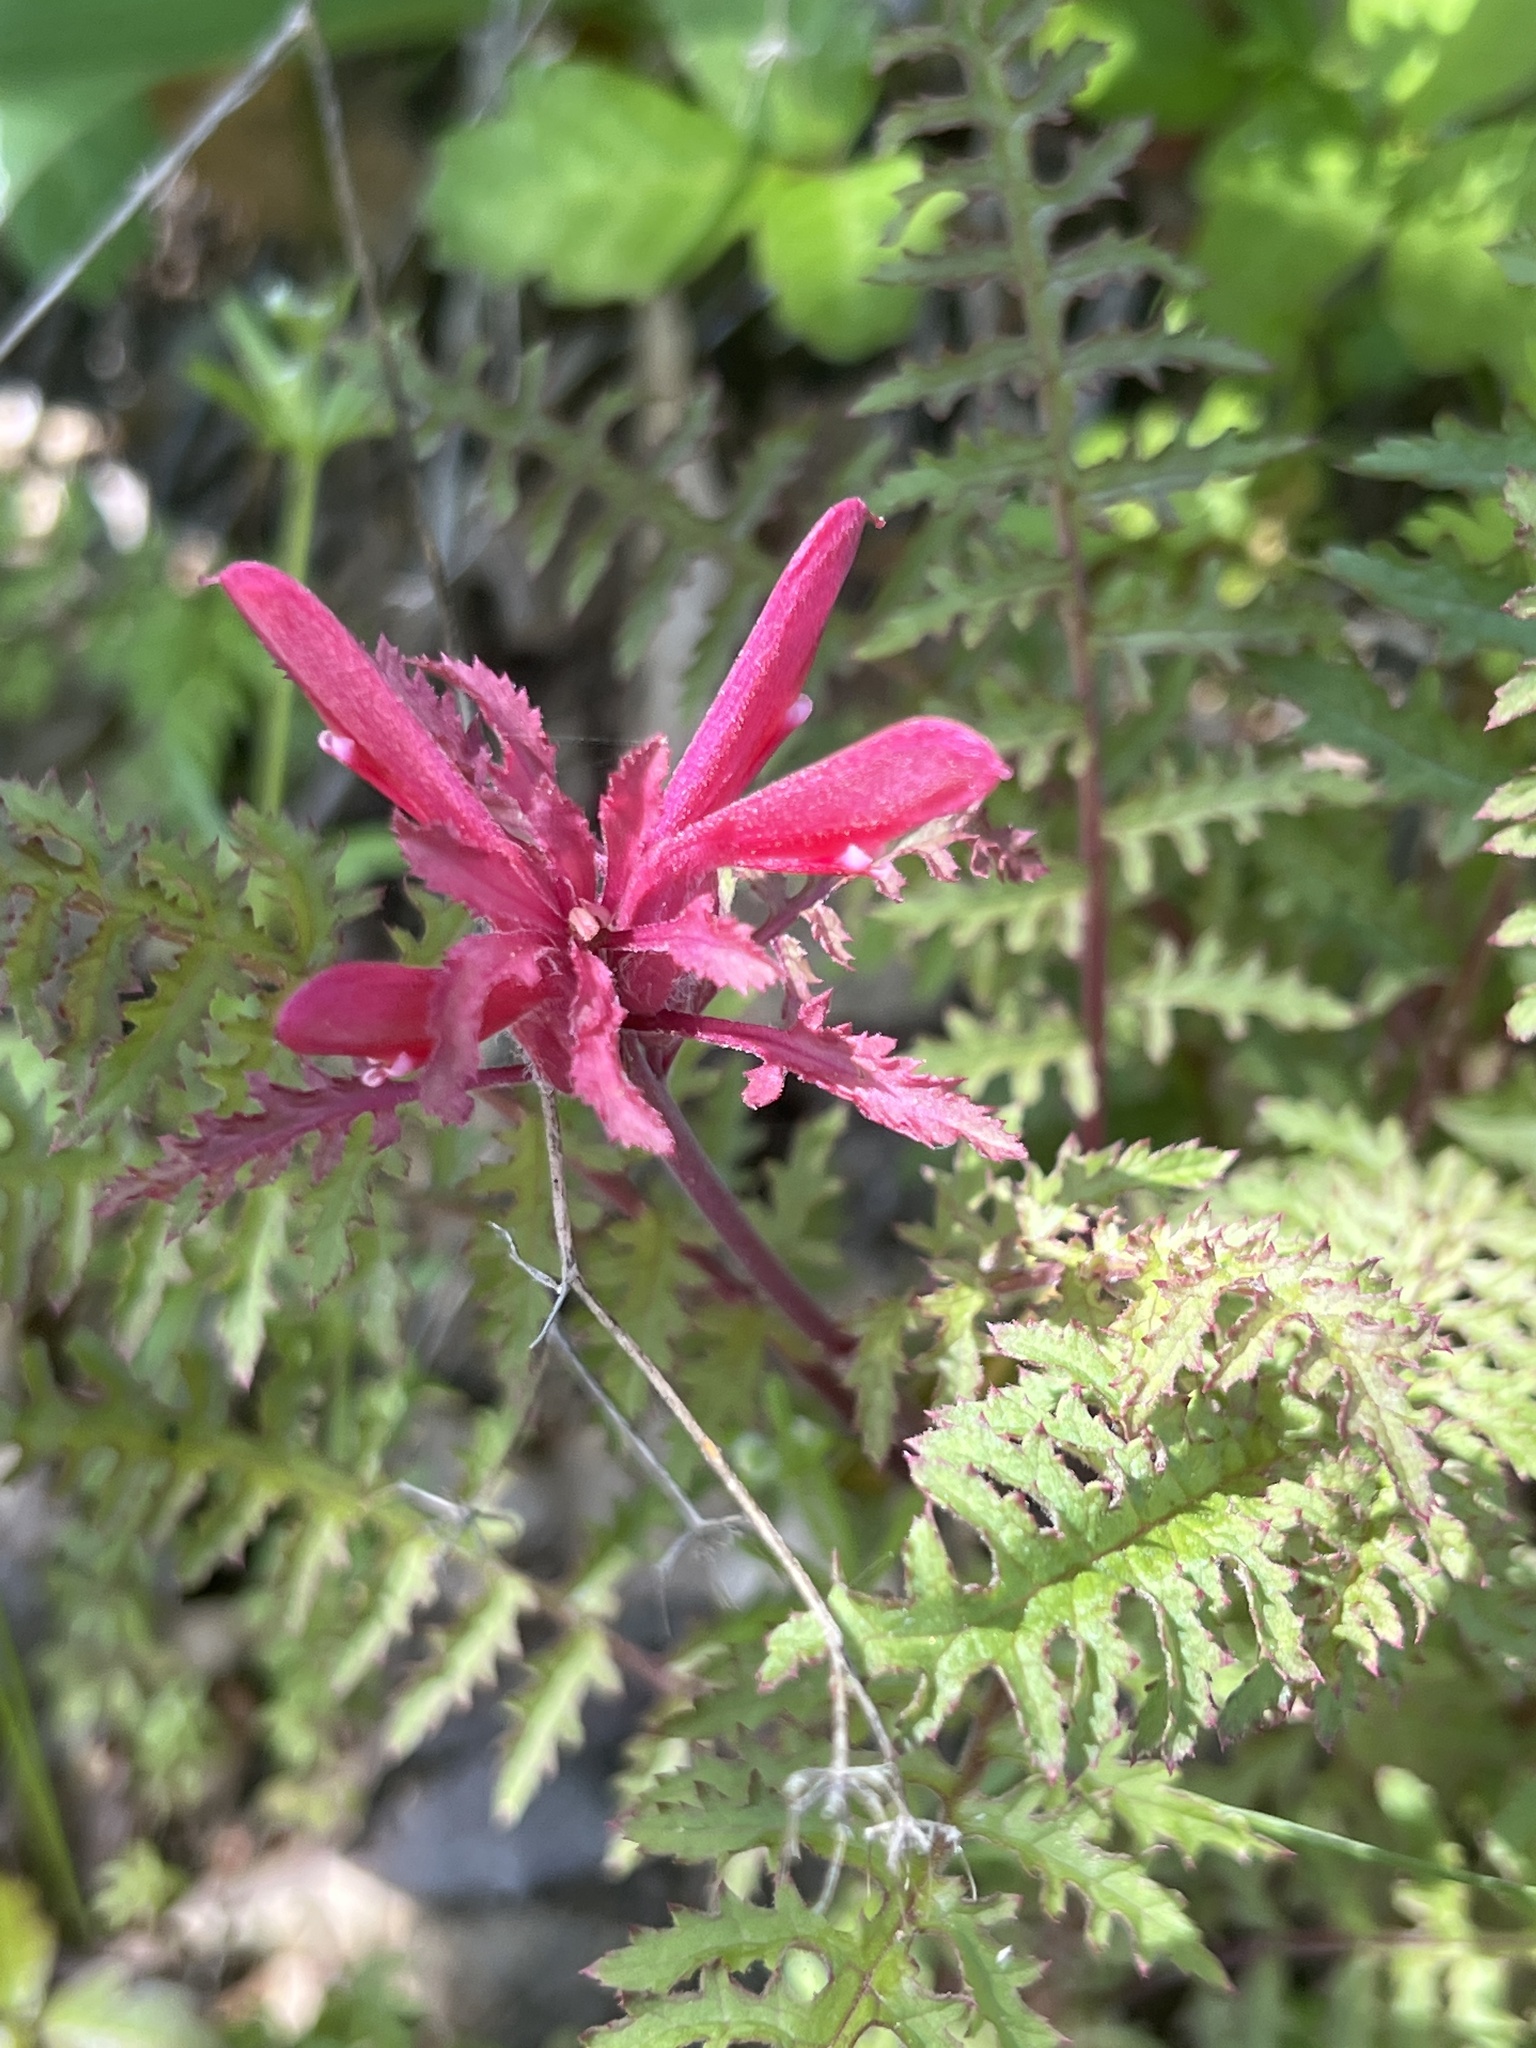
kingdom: Plantae
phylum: Tracheophyta
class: Magnoliopsida
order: Lamiales
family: Orobanchaceae
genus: Pedicularis
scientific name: Pedicularis densiflora
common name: Indian warrior
